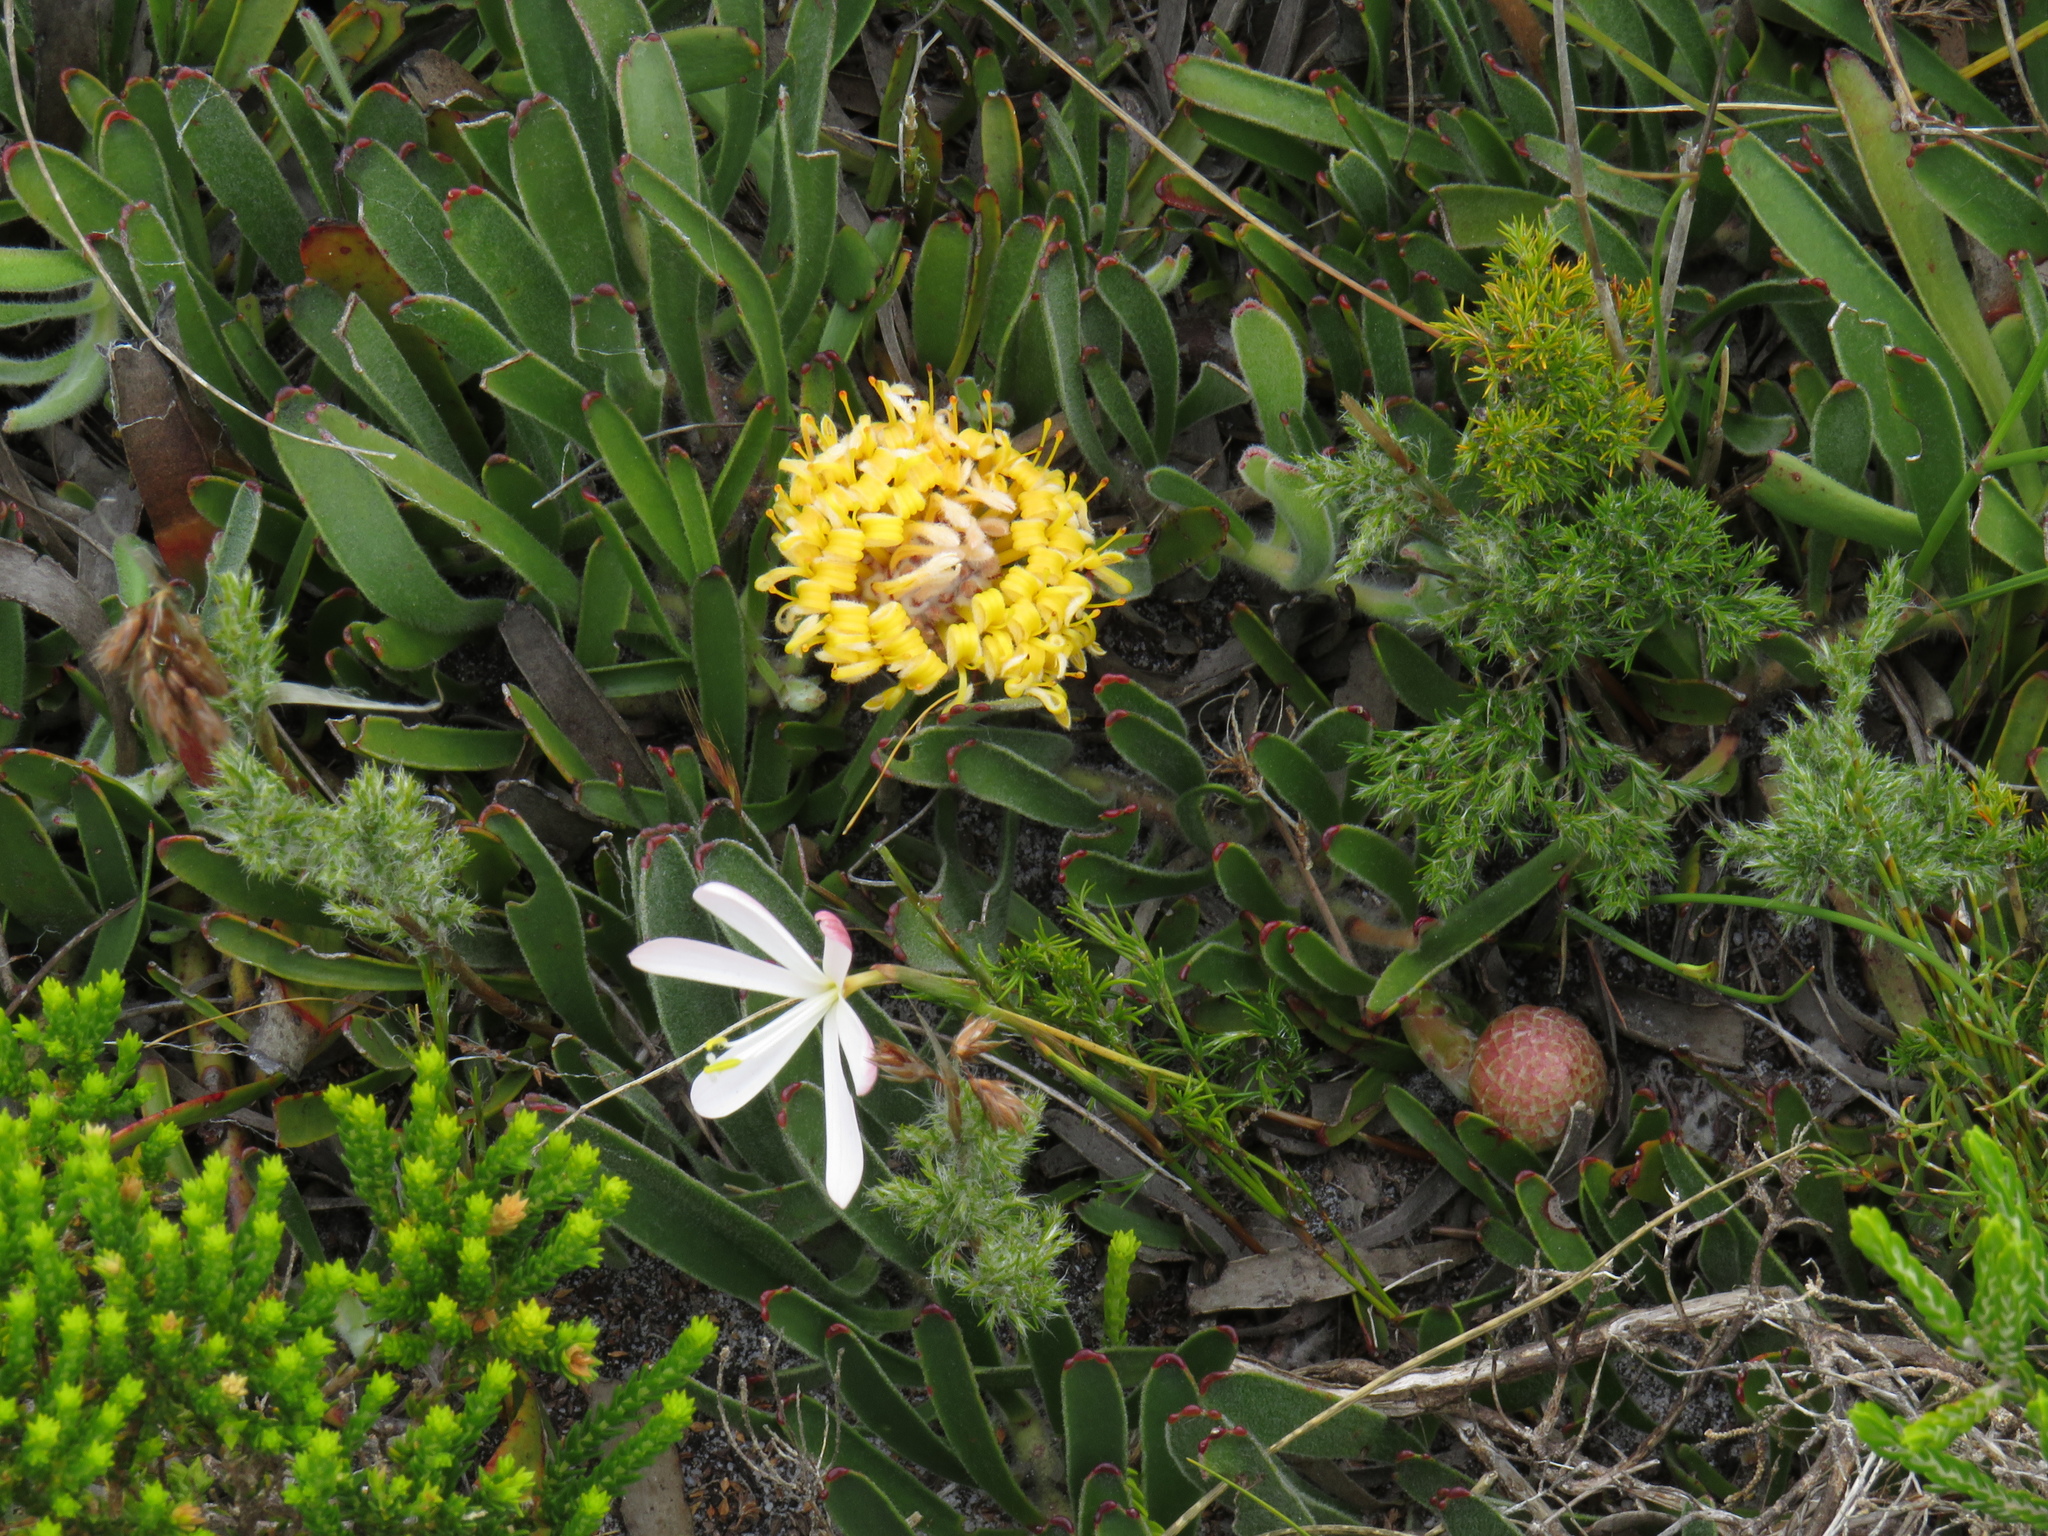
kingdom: Plantae
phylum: Tracheophyta
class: Liliopsida
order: Asparagales
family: Iridaceae
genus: Geissorhiza
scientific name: Geissorhiza bonae-spei
